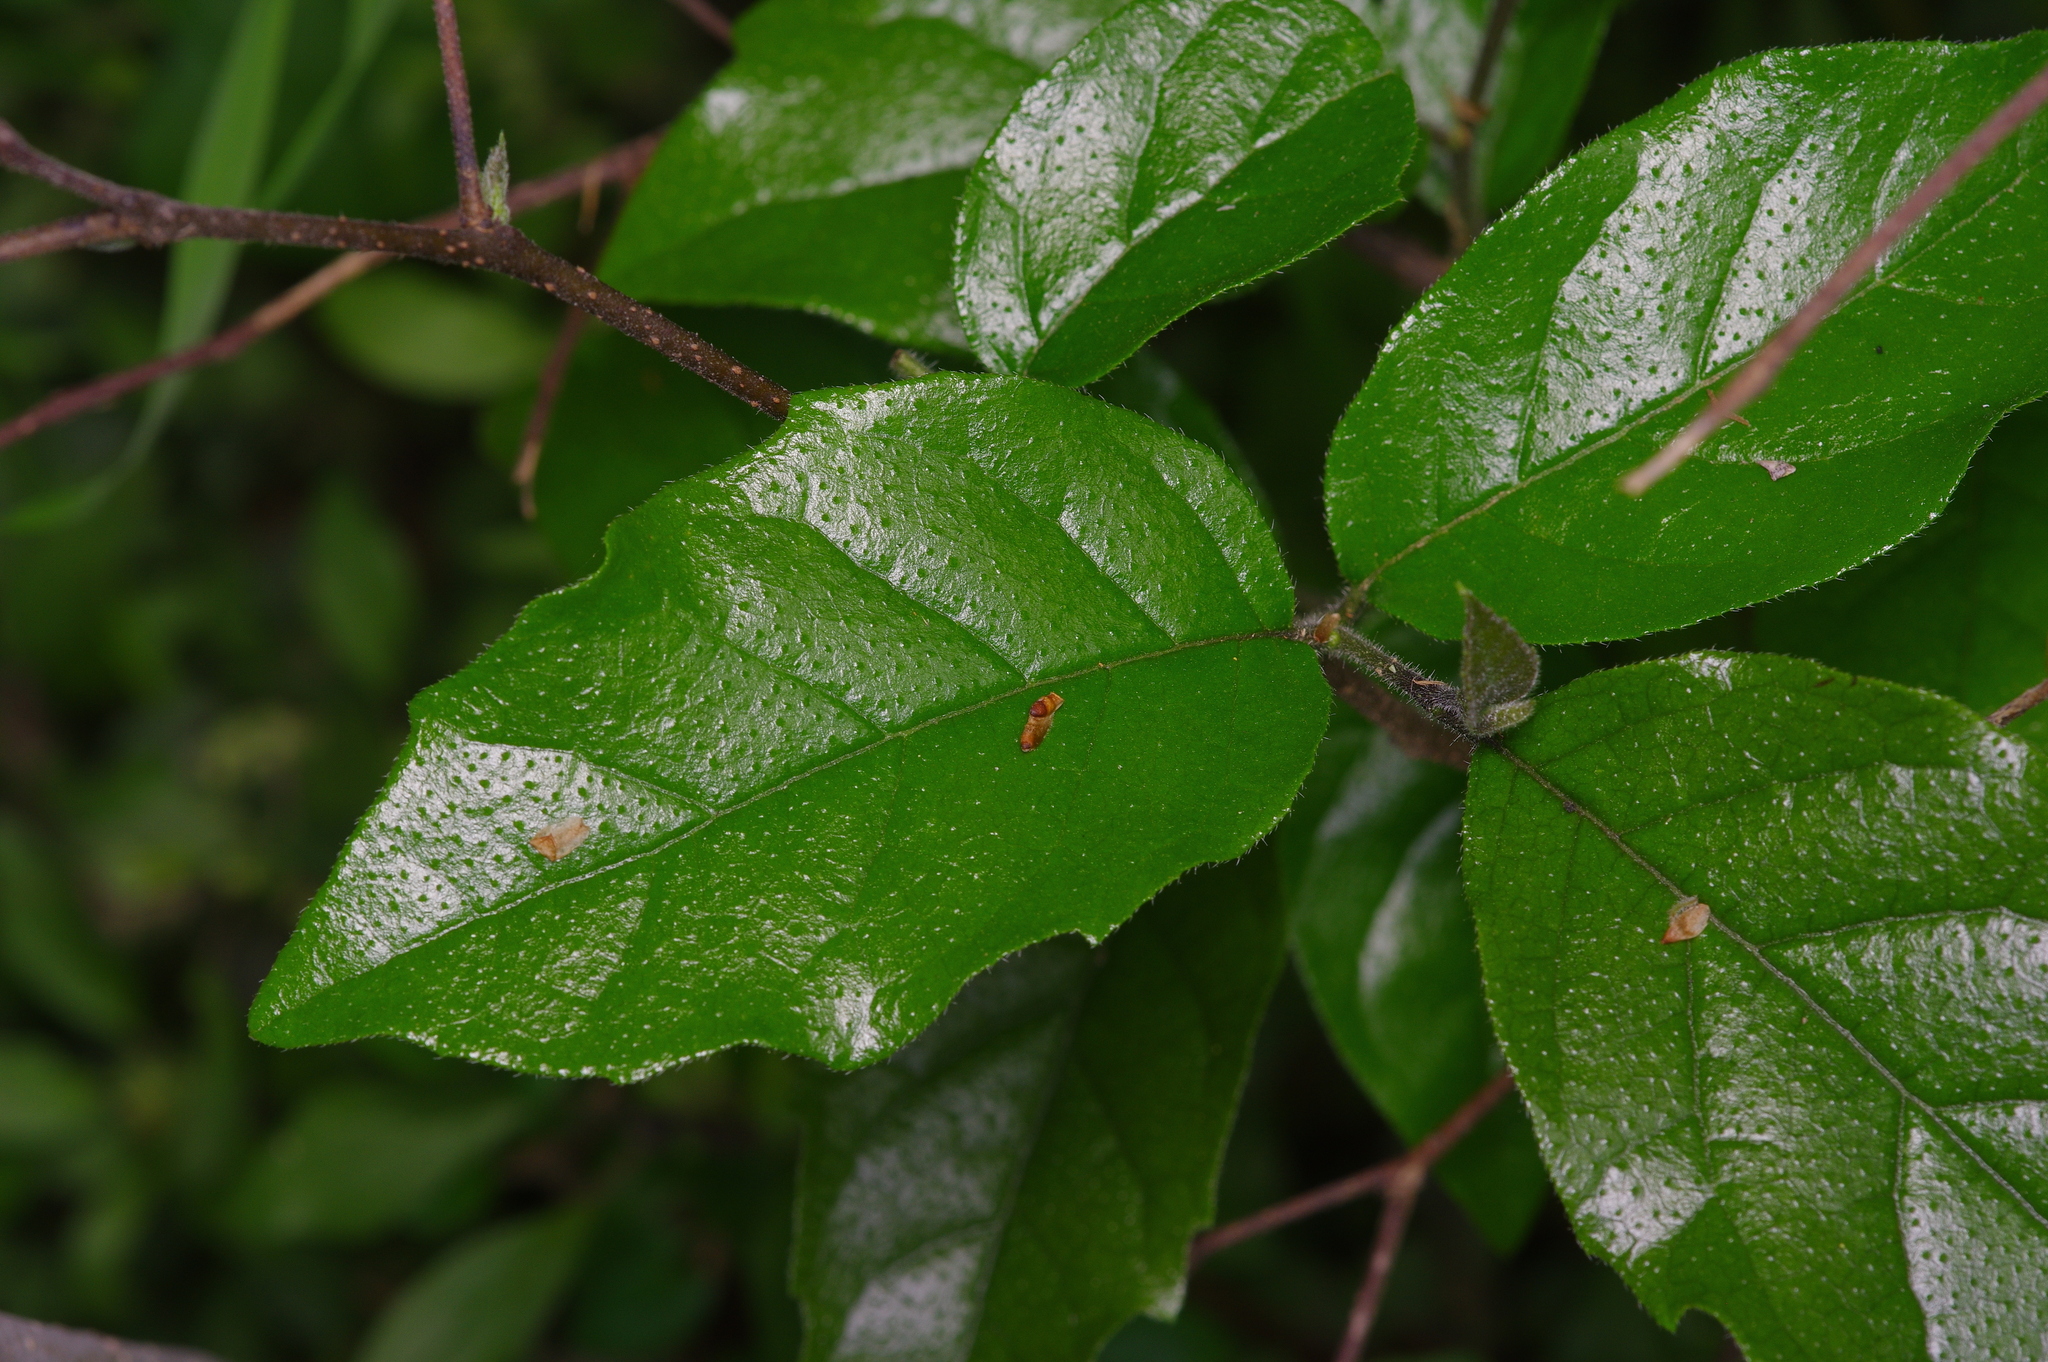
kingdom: Plantae
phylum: Tracheophyta
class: Magnoliopsida
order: Boraginales
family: Ehretiaceae
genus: Ehretia
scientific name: Ehretia anacua
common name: Sugarberry
